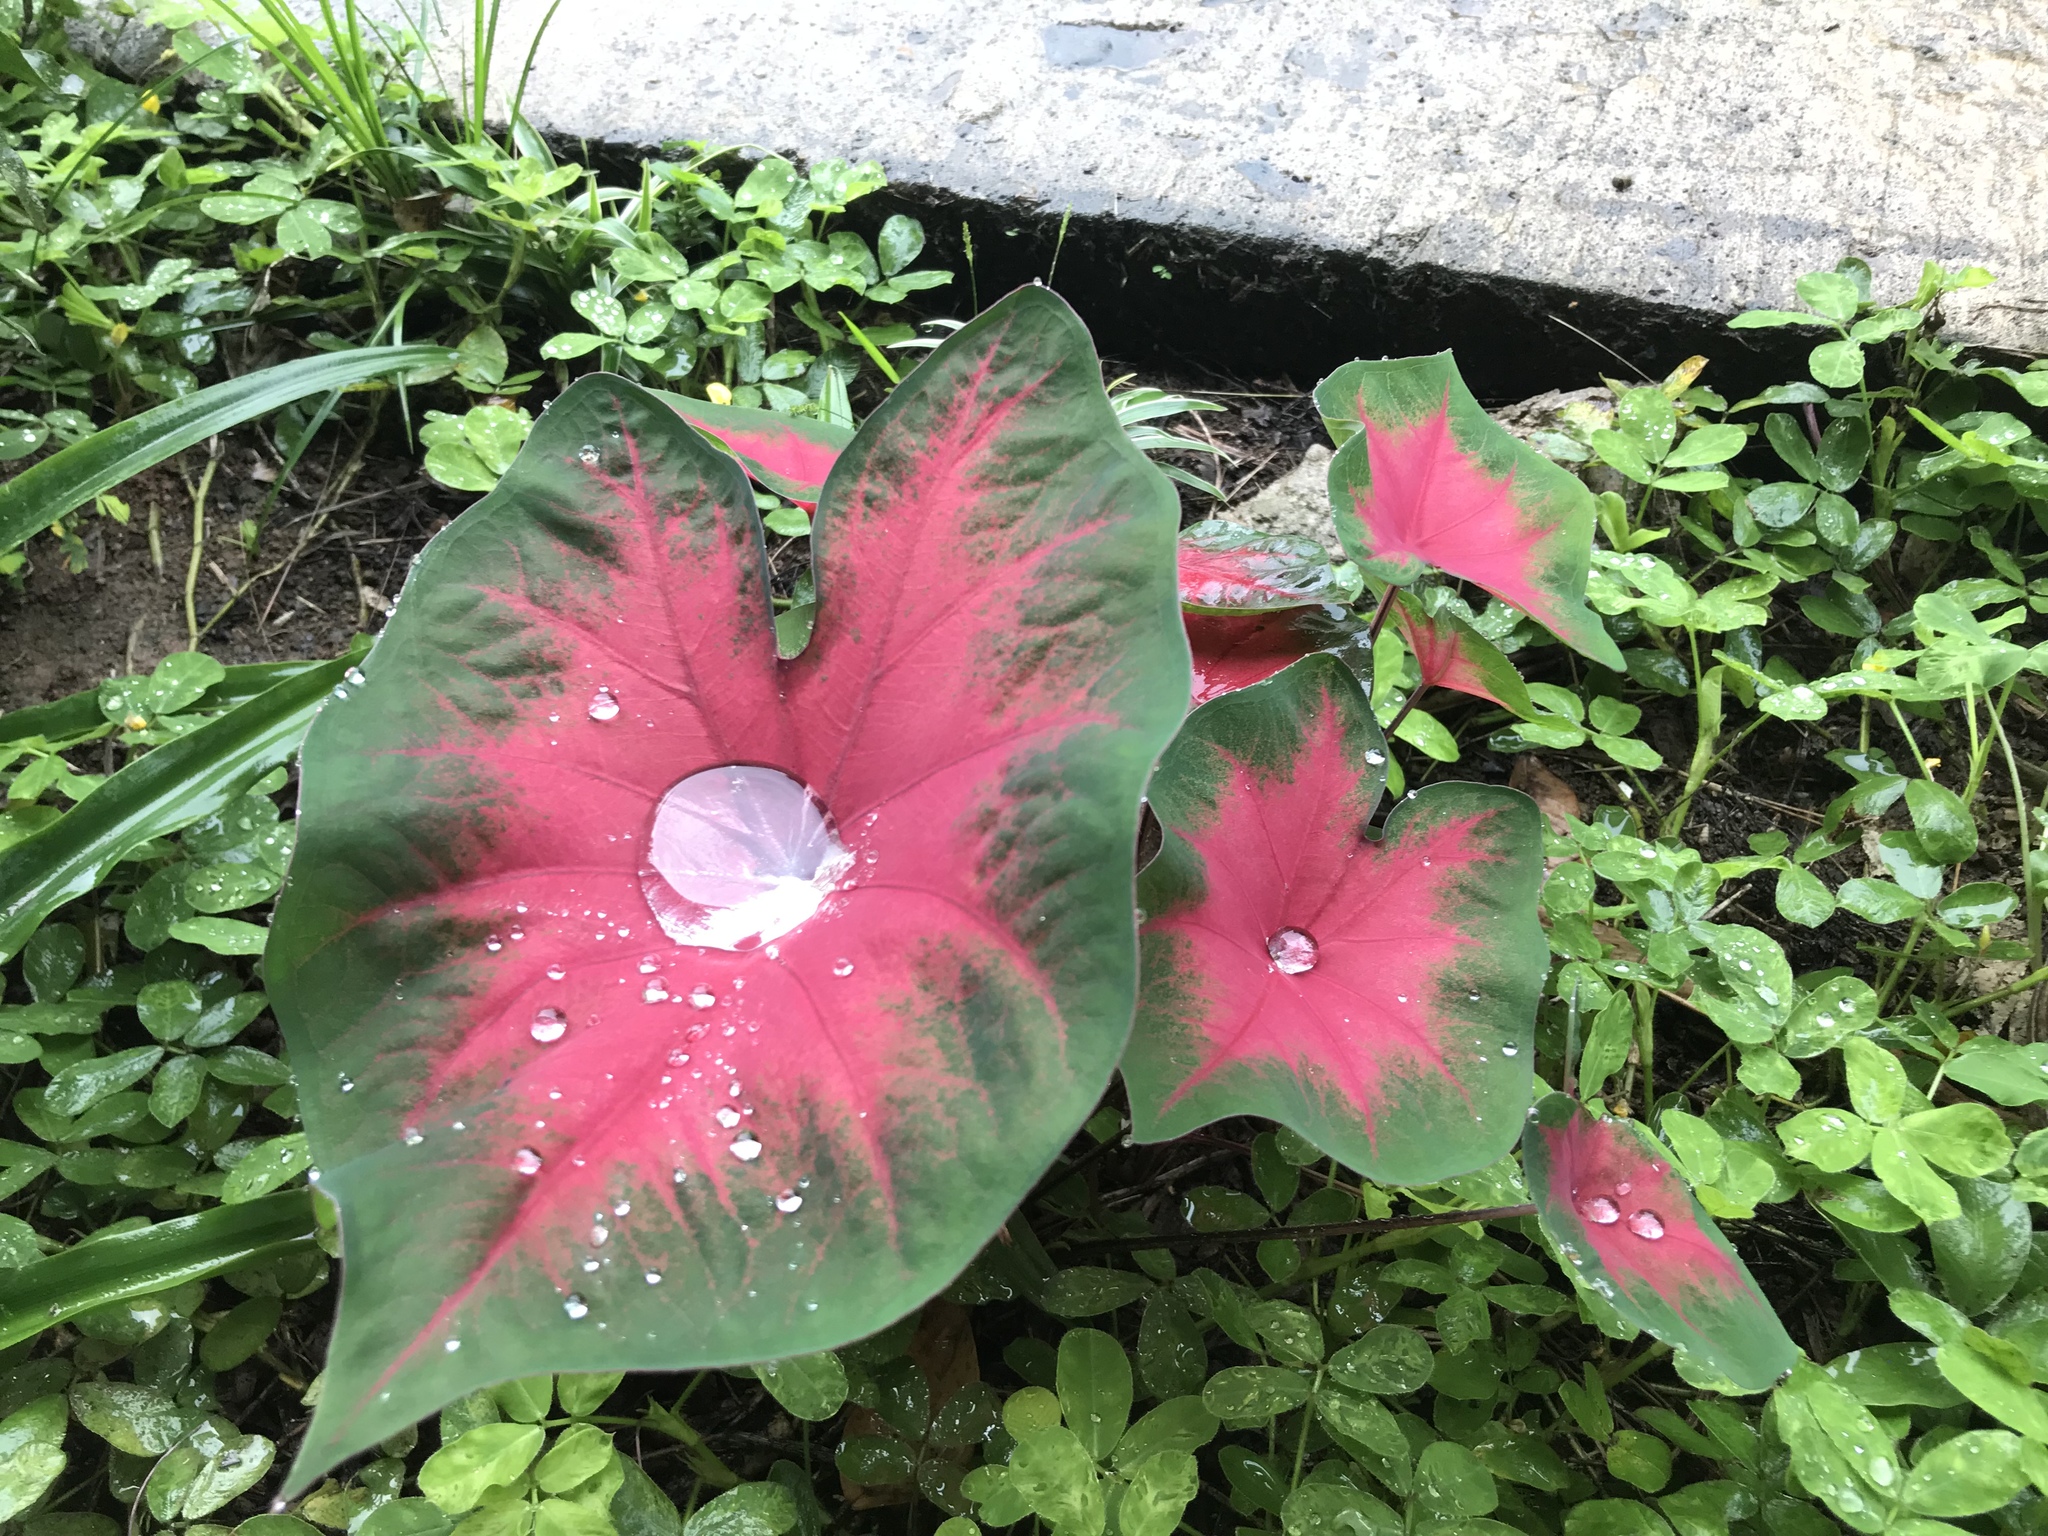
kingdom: Plantae
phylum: Tracheophyta
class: Liliopsida
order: Alismatales
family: Araceae
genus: Caladium
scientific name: Caladium bicolor
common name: Artist's pallet
